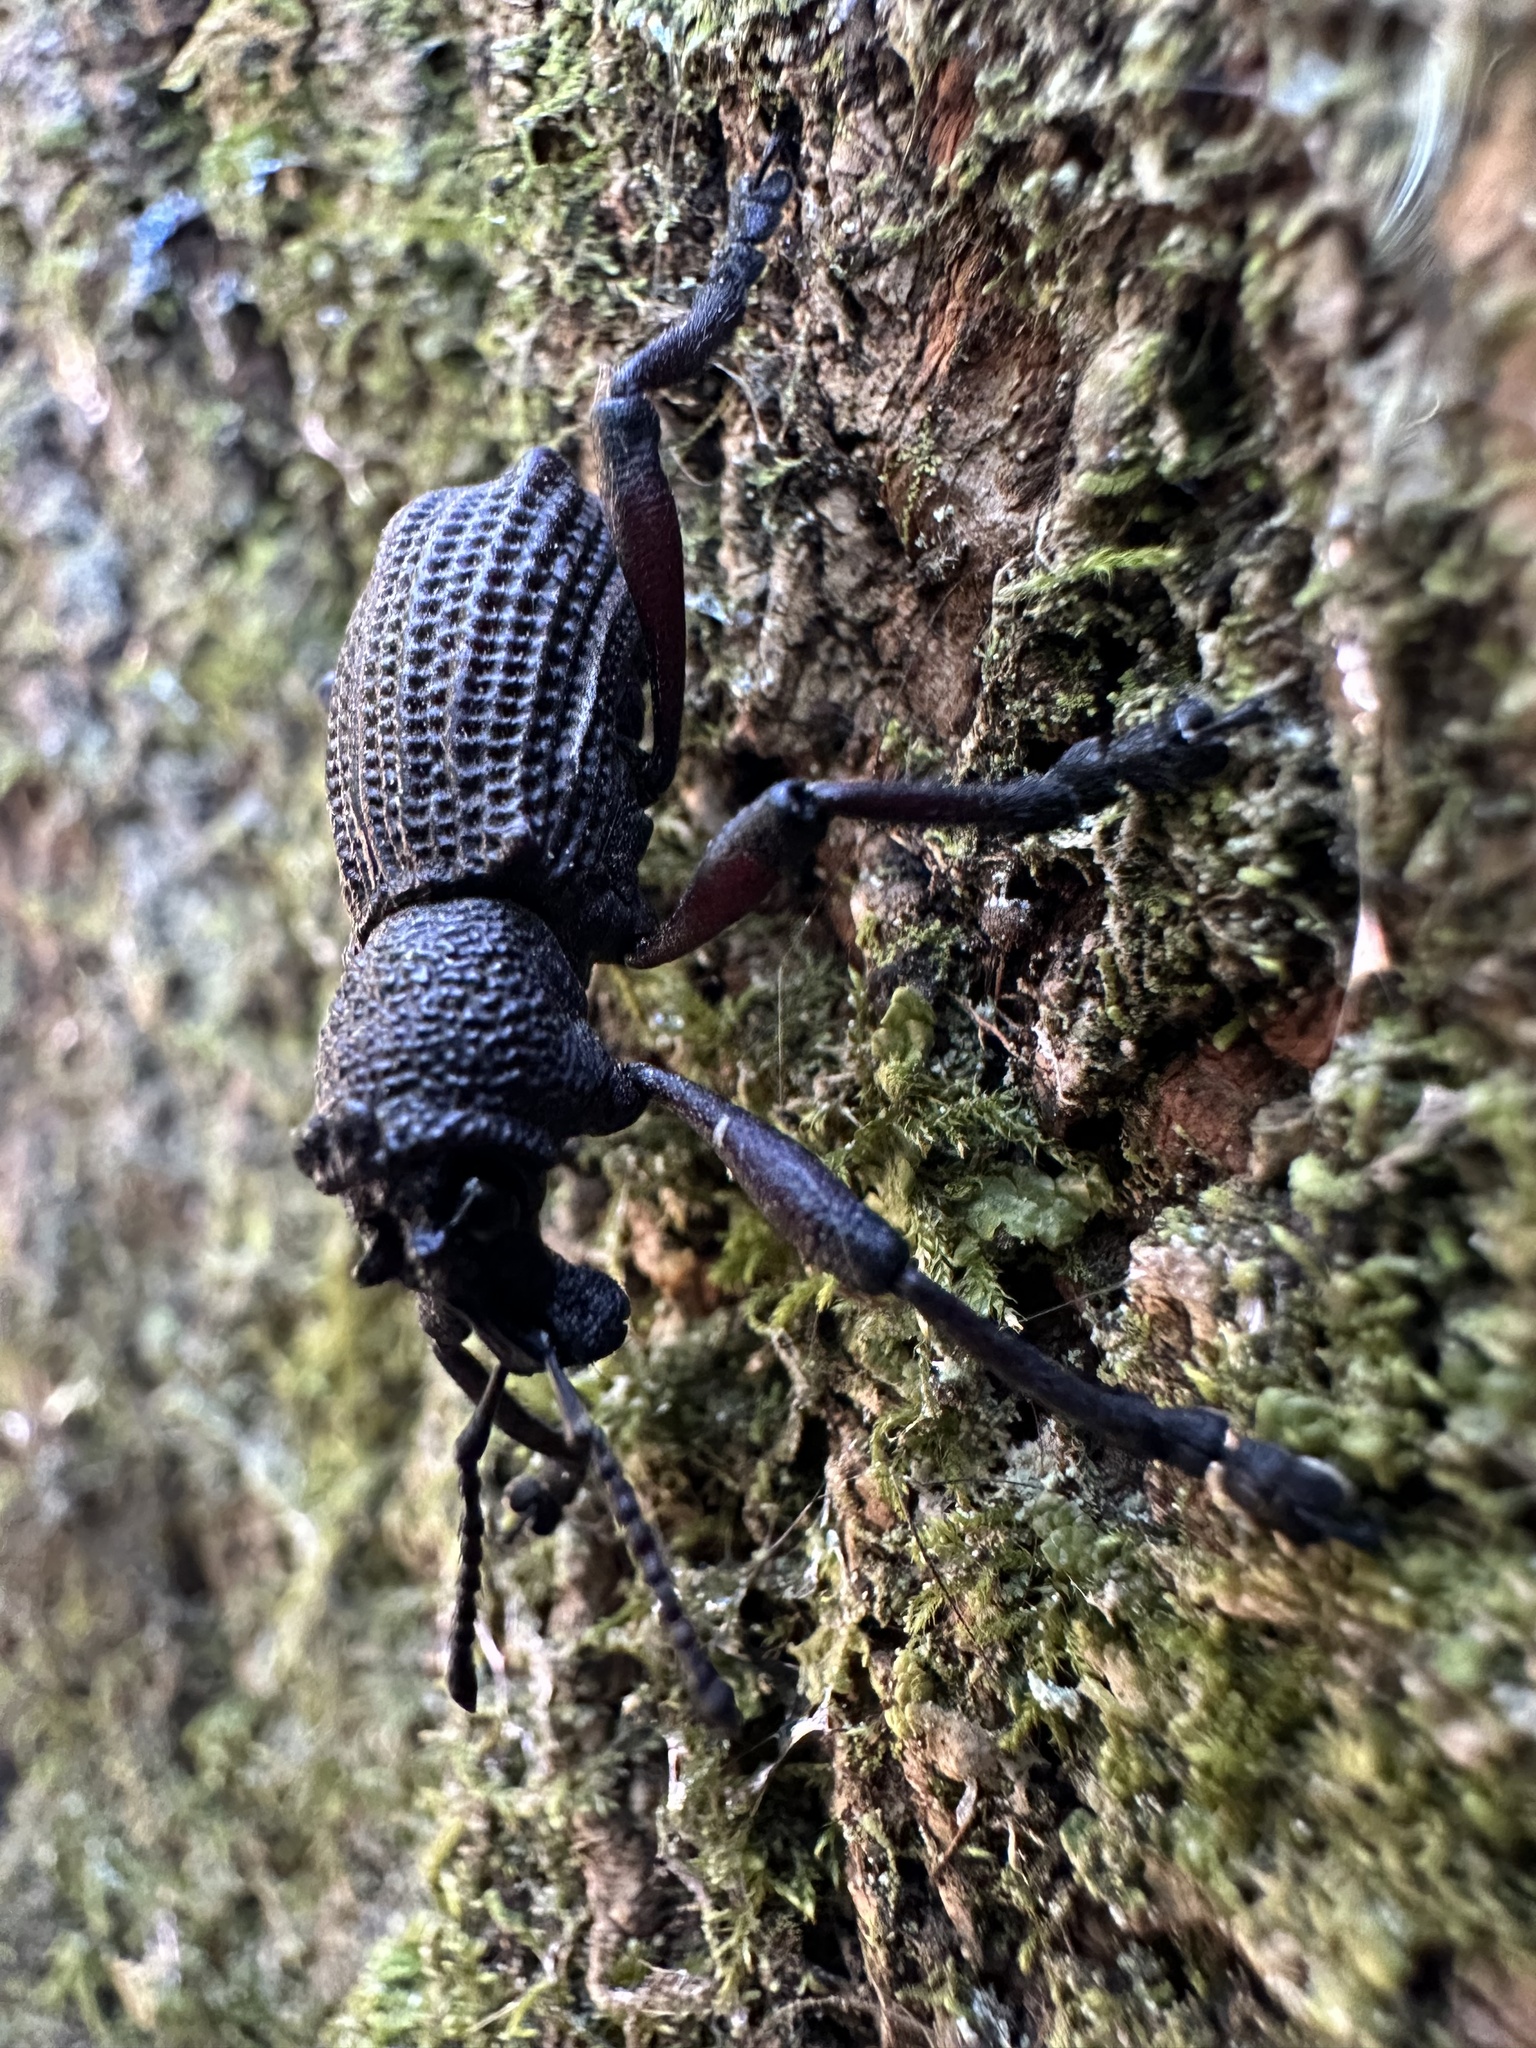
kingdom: Animalia
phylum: Arthropoda
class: Insecta
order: Coleoptera
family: Curculionidae
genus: Aegorhinus
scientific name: Aegorhinus
